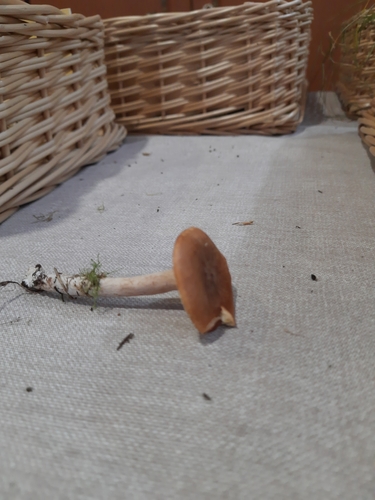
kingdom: Fungi
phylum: Basidiomycota
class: Agaricomycetes
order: Russulales
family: Russulaceae
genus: Lactarius
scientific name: Lactarius rufus
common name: Rufous milk-cap
